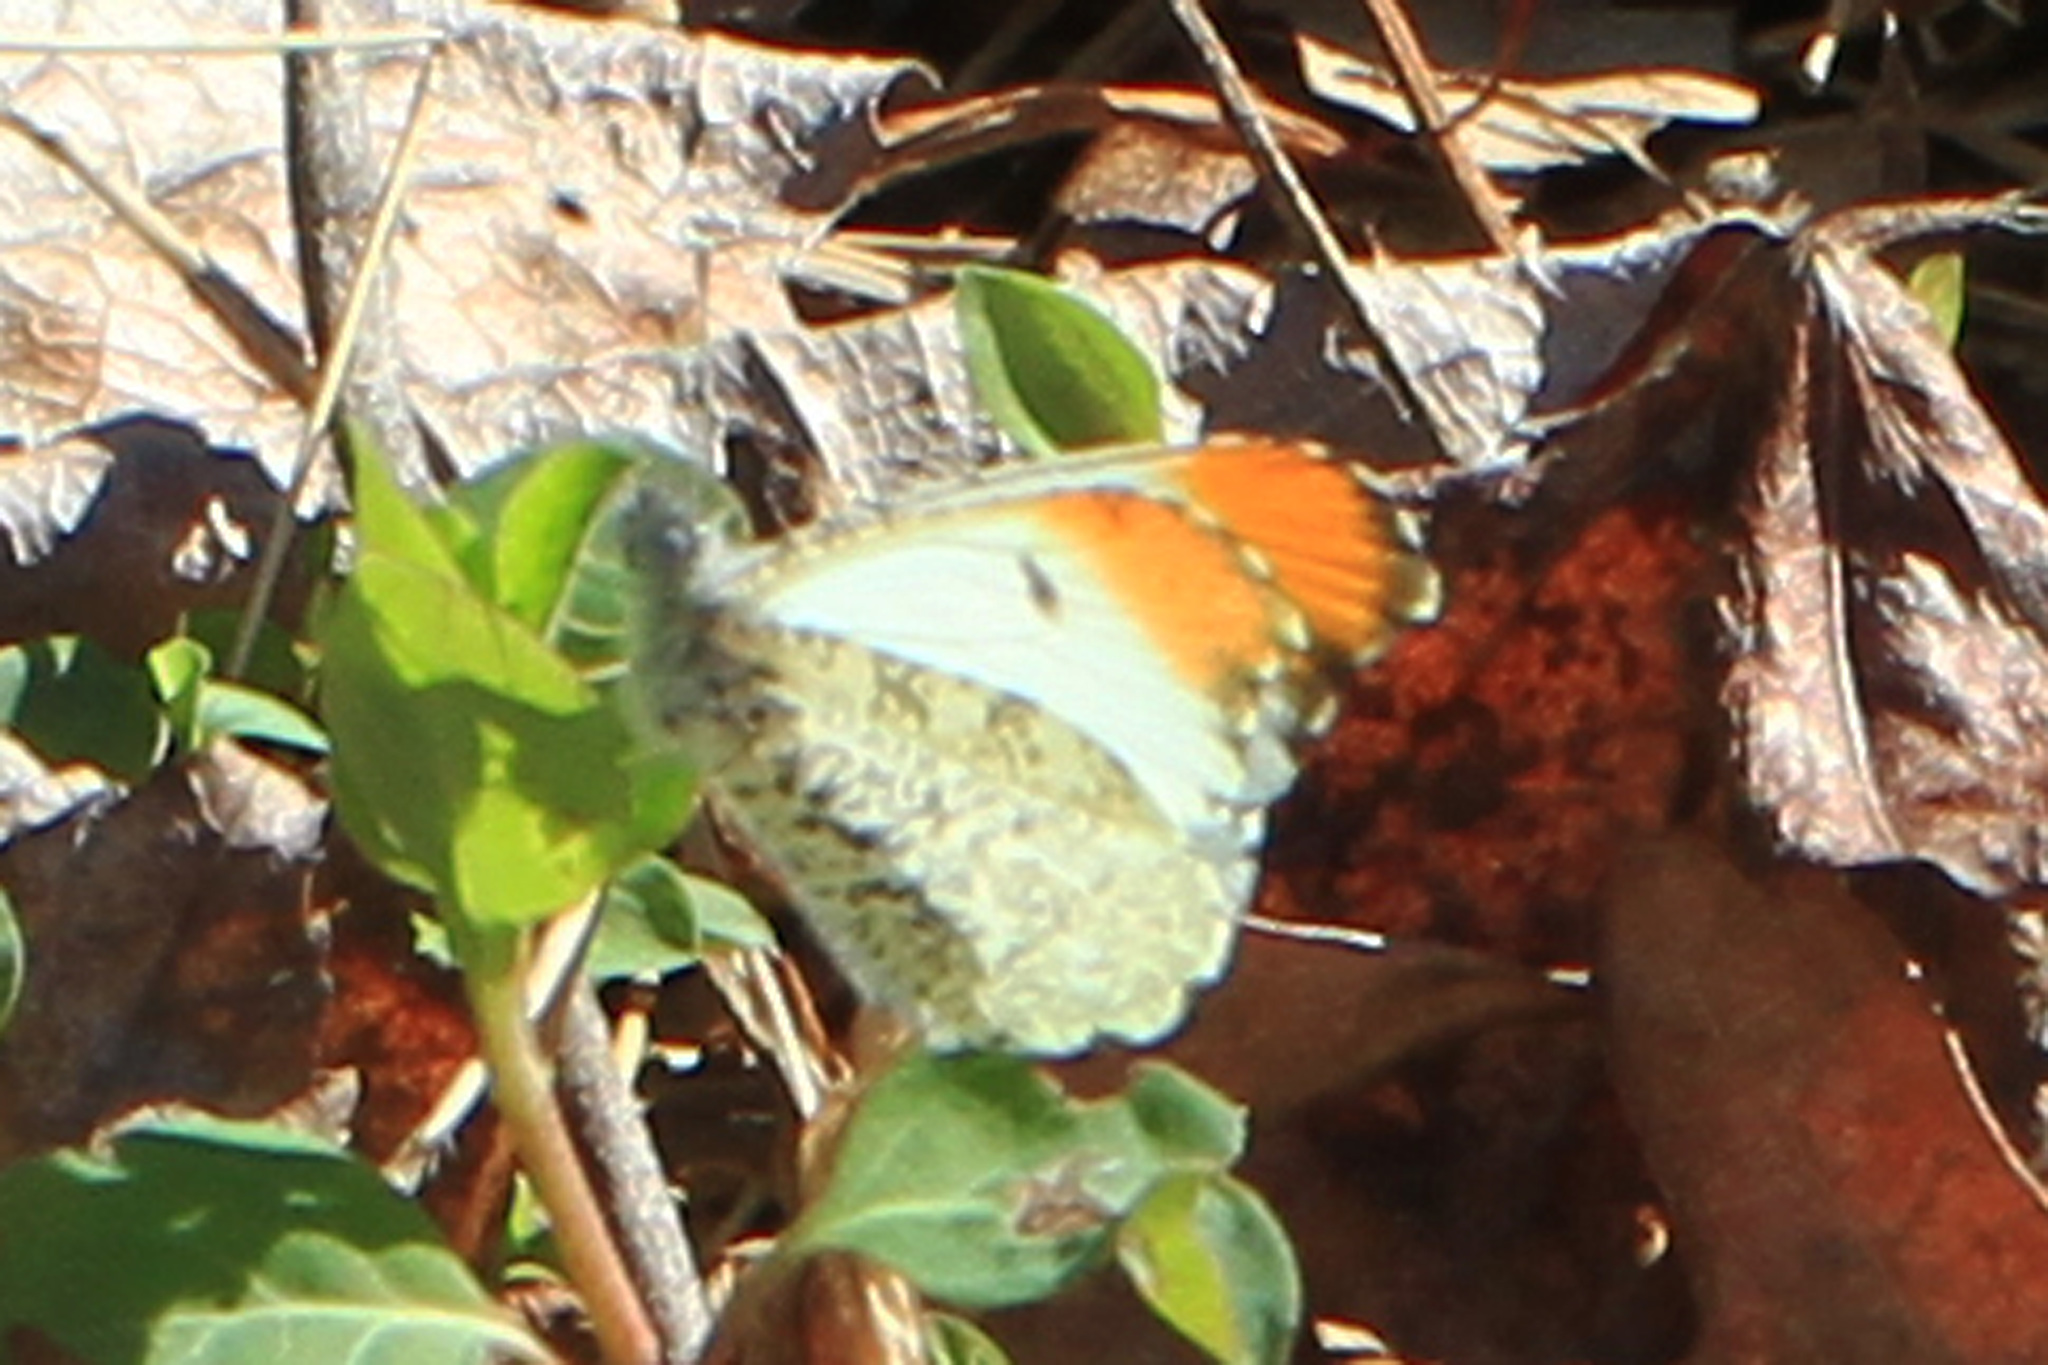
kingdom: Animalia
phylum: Arthropoda
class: Insecta
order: Lepidoptera
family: Pieridae
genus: Anthocharis
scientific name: Anthocharis midea
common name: Falcate orangetip
